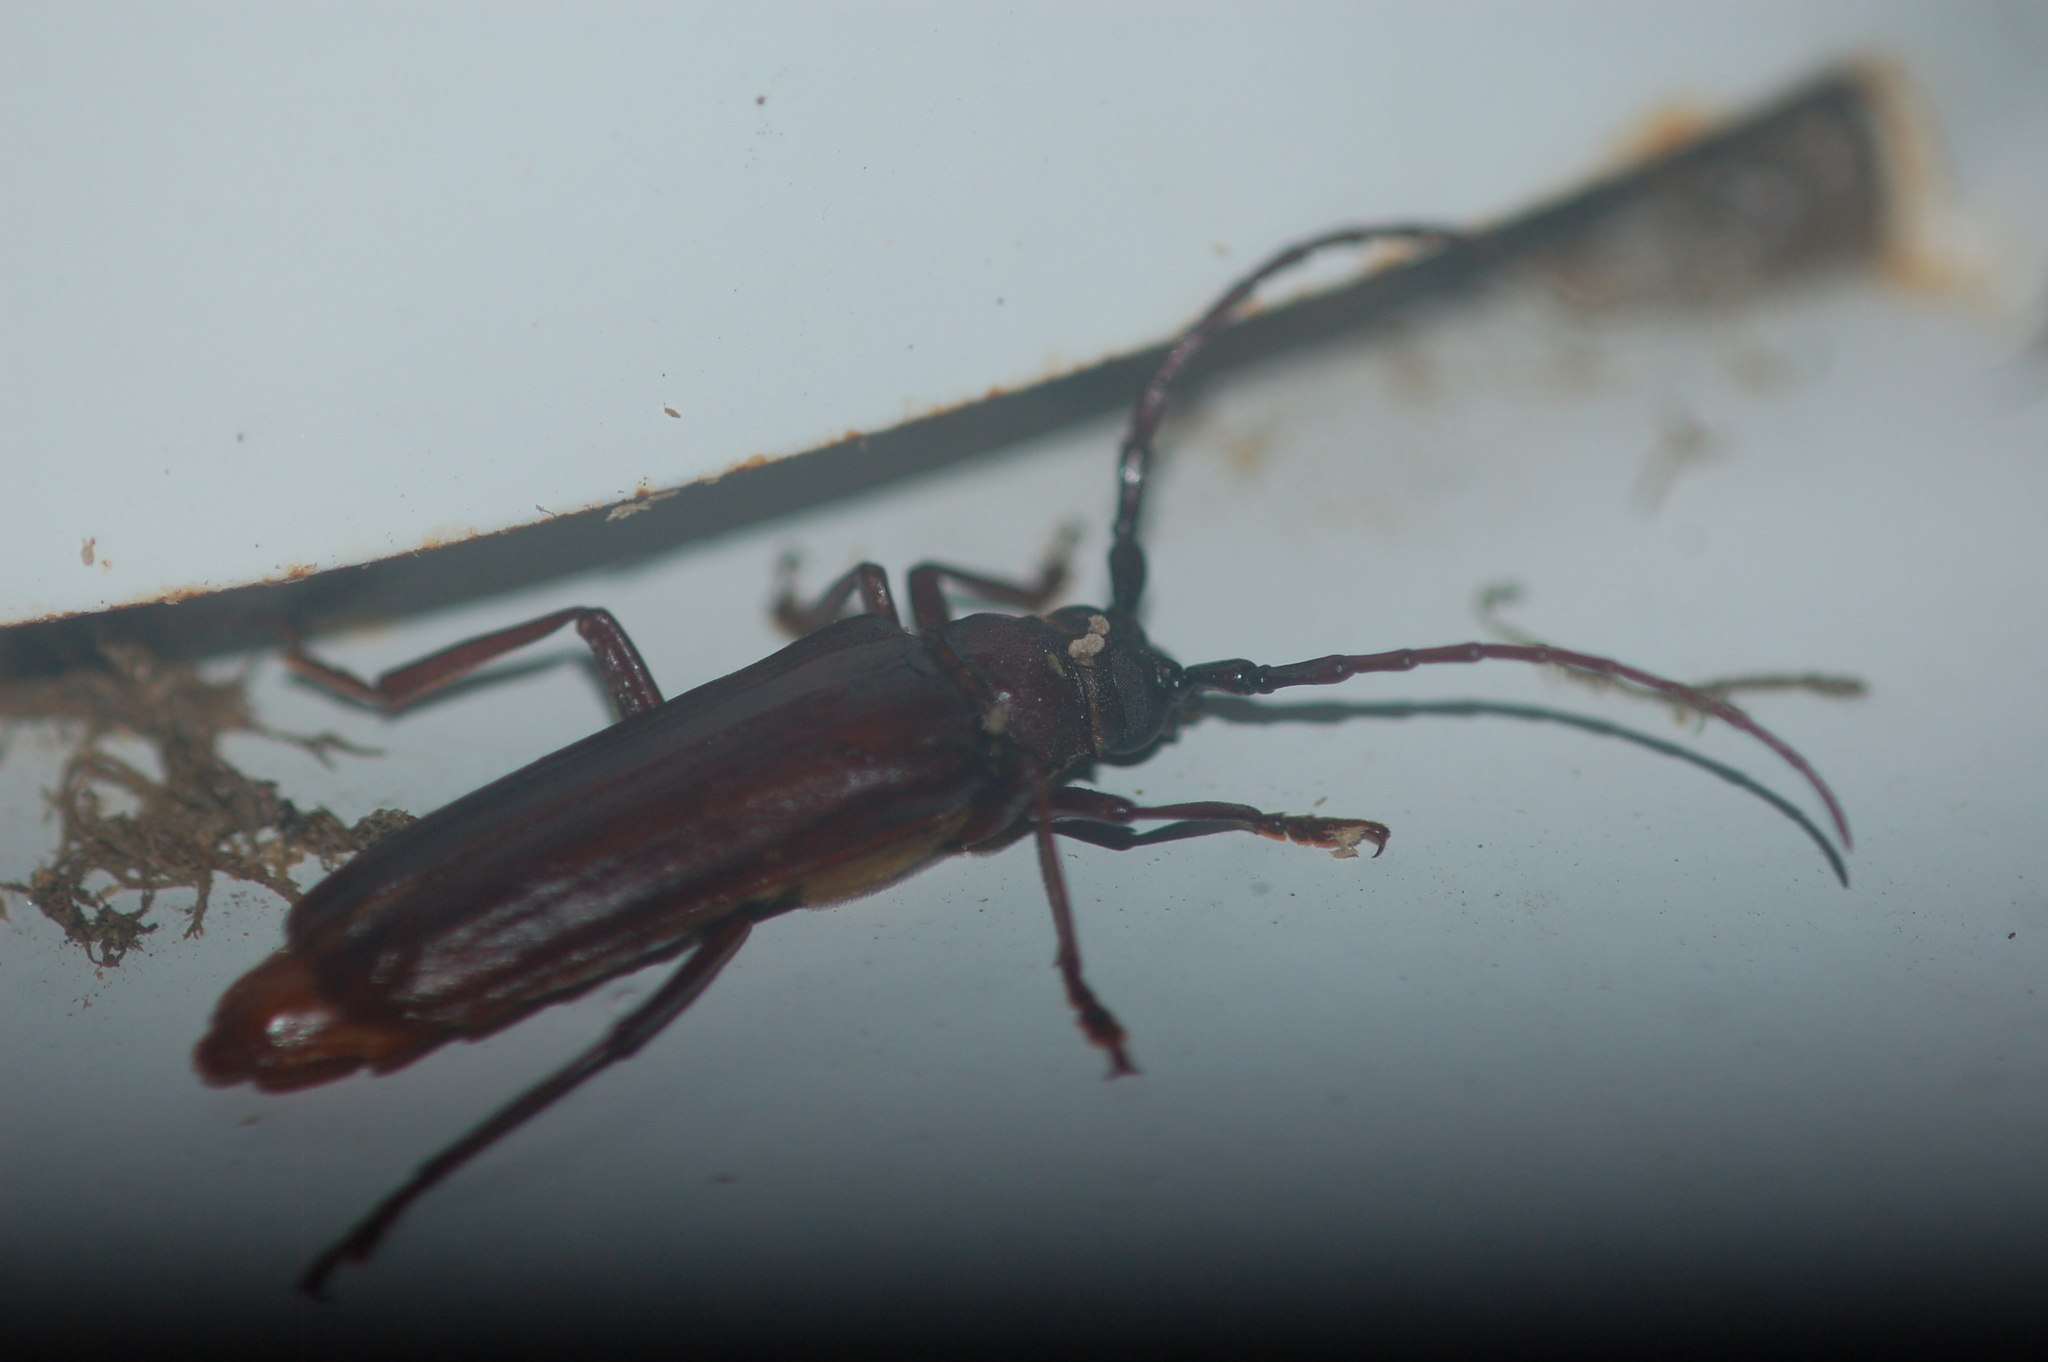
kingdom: Animalia
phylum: Arthropoda
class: Insecta
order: Coleoptera
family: Cerambycidae
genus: Orthosoma
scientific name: Orthosoma brunneum
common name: Brown prionid beetle
